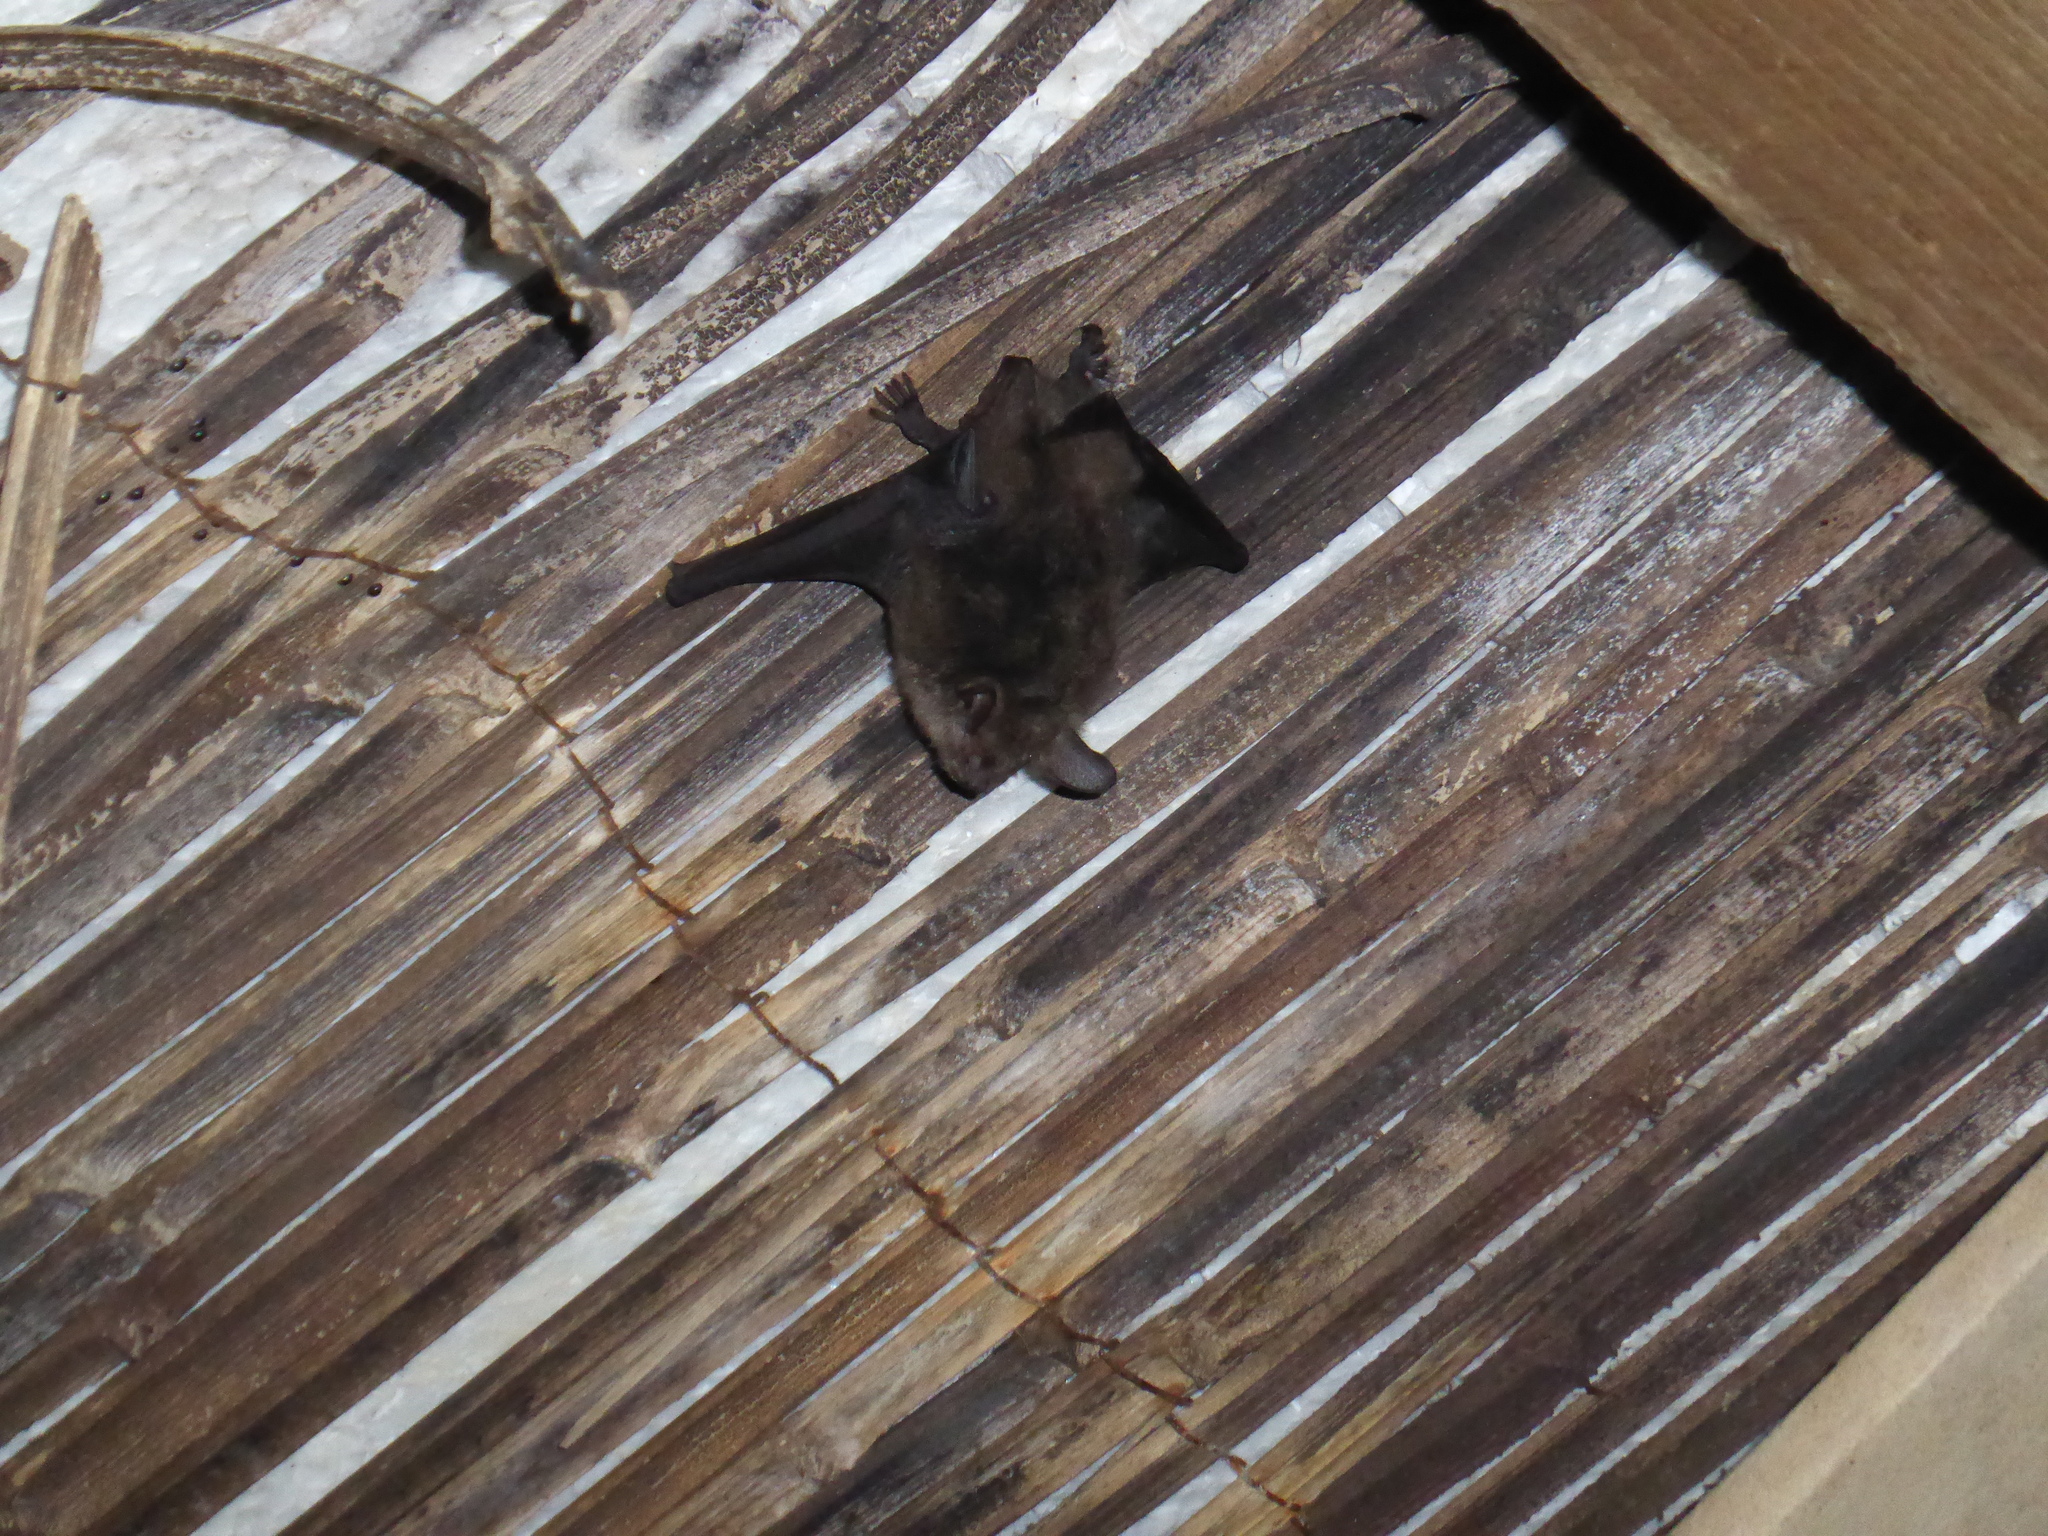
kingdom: Animalia
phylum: Chordata
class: Mammalia
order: Chiroptera
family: Vespertilionidae
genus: Myotis
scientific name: Myotis emarginatus
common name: Geoffroy's bat
